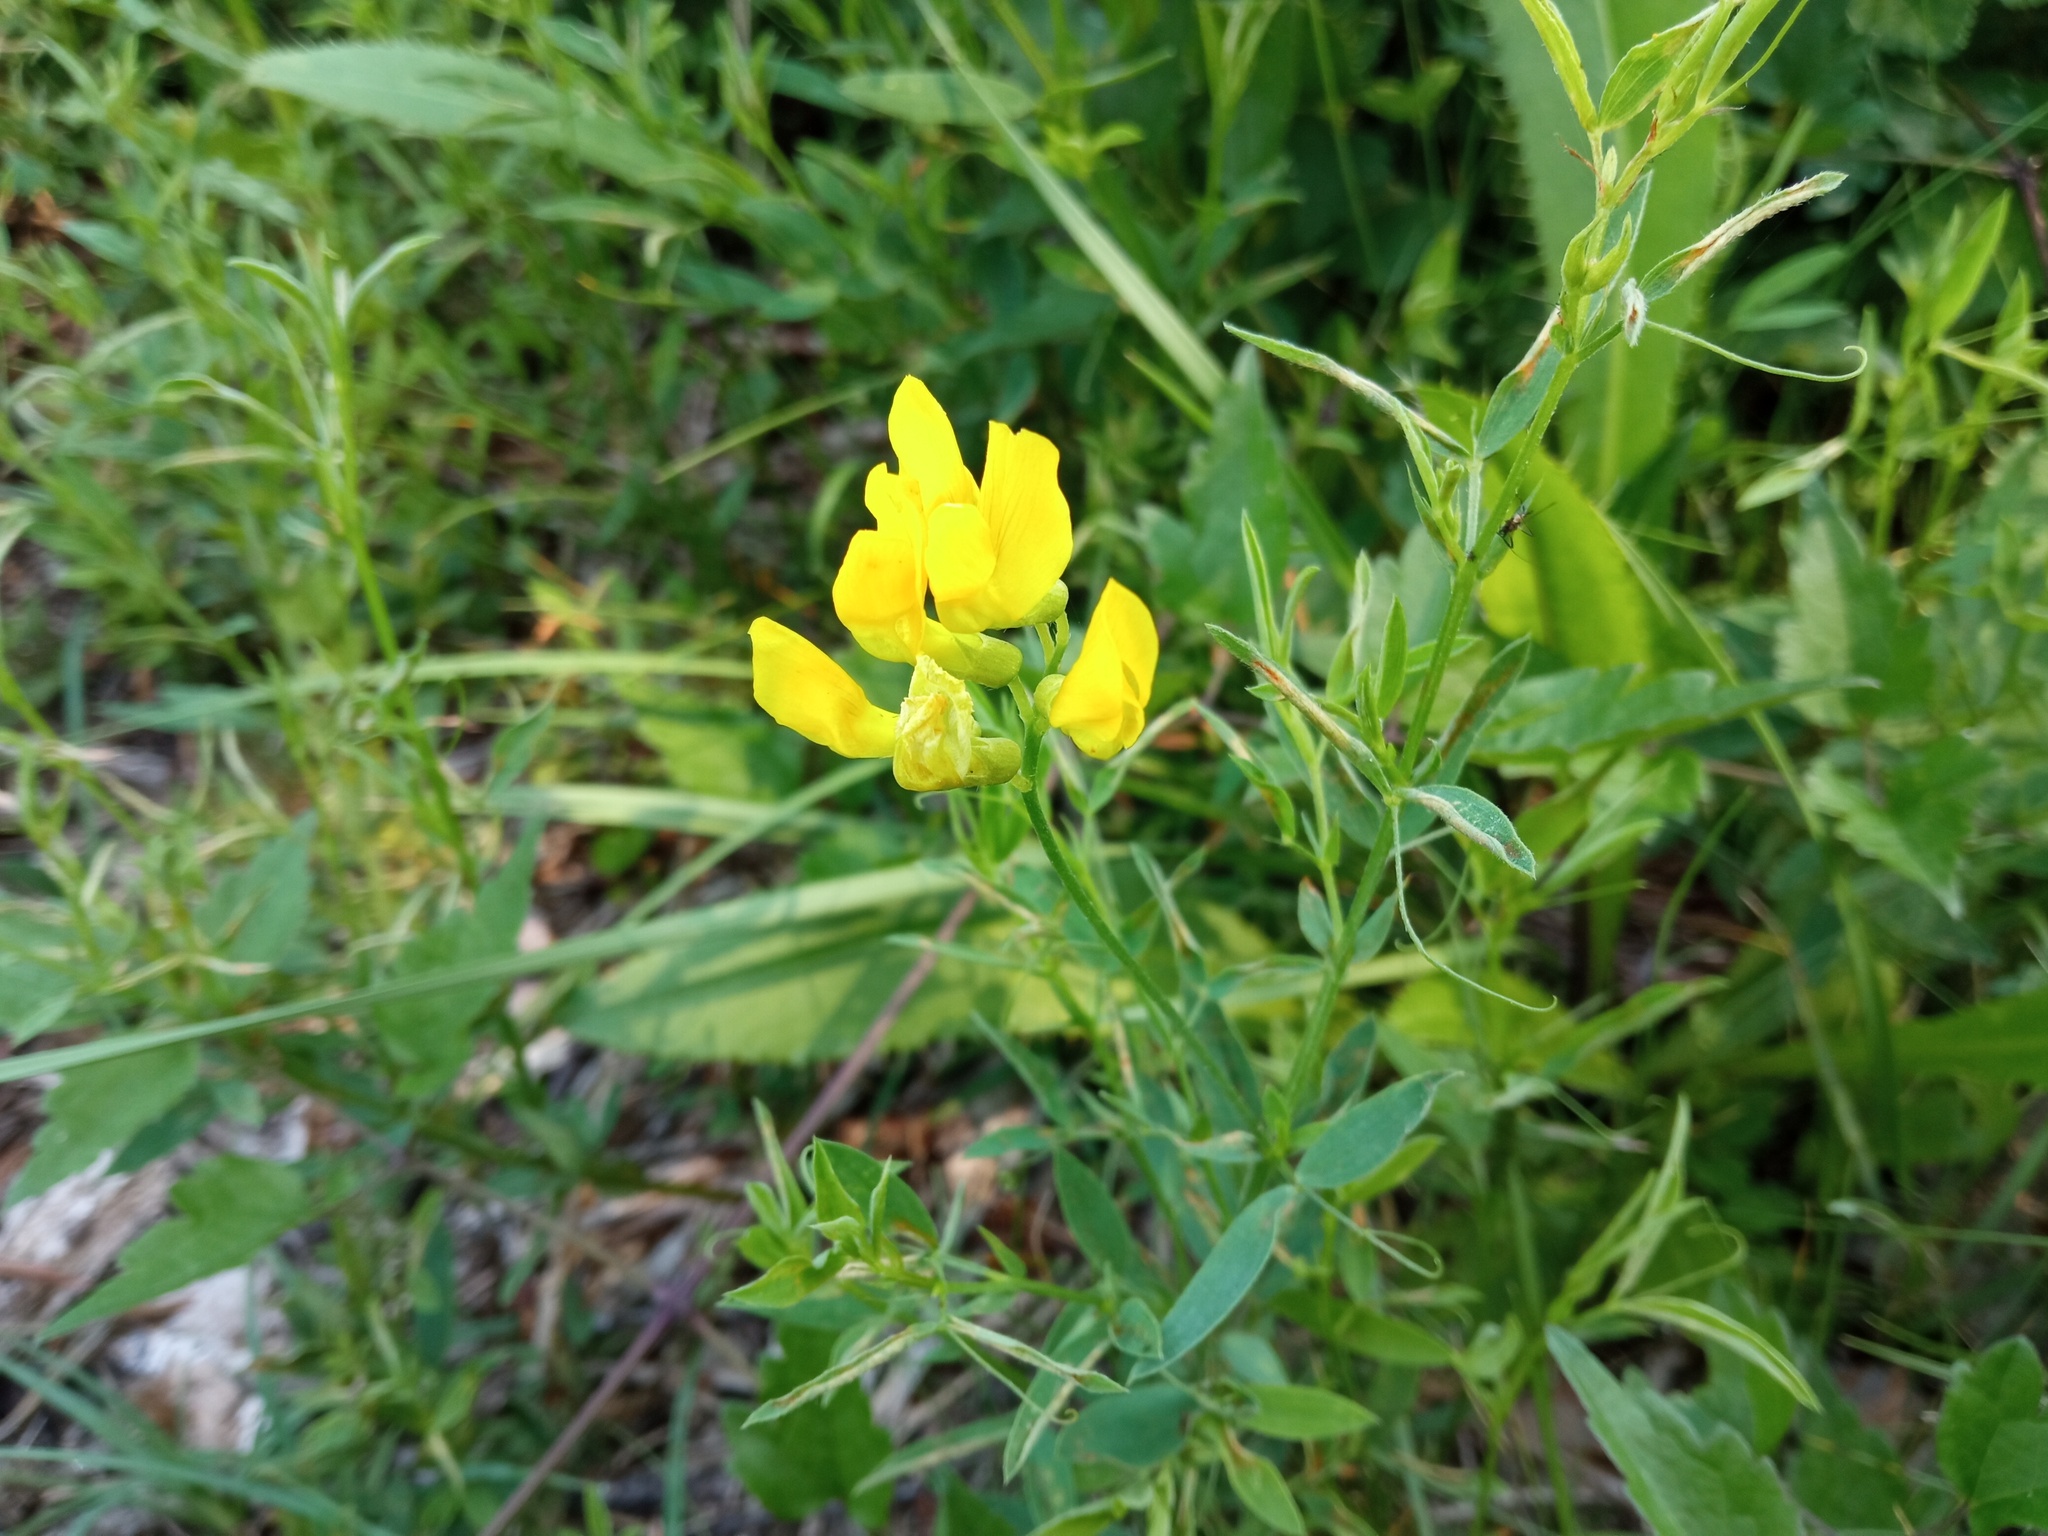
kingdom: Plantae
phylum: Tracheophyta
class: Magnoliopsida
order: Fabales
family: Fabaceae
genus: Lathyrus
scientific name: Lathyrus pratensis
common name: Meadow vetchling
